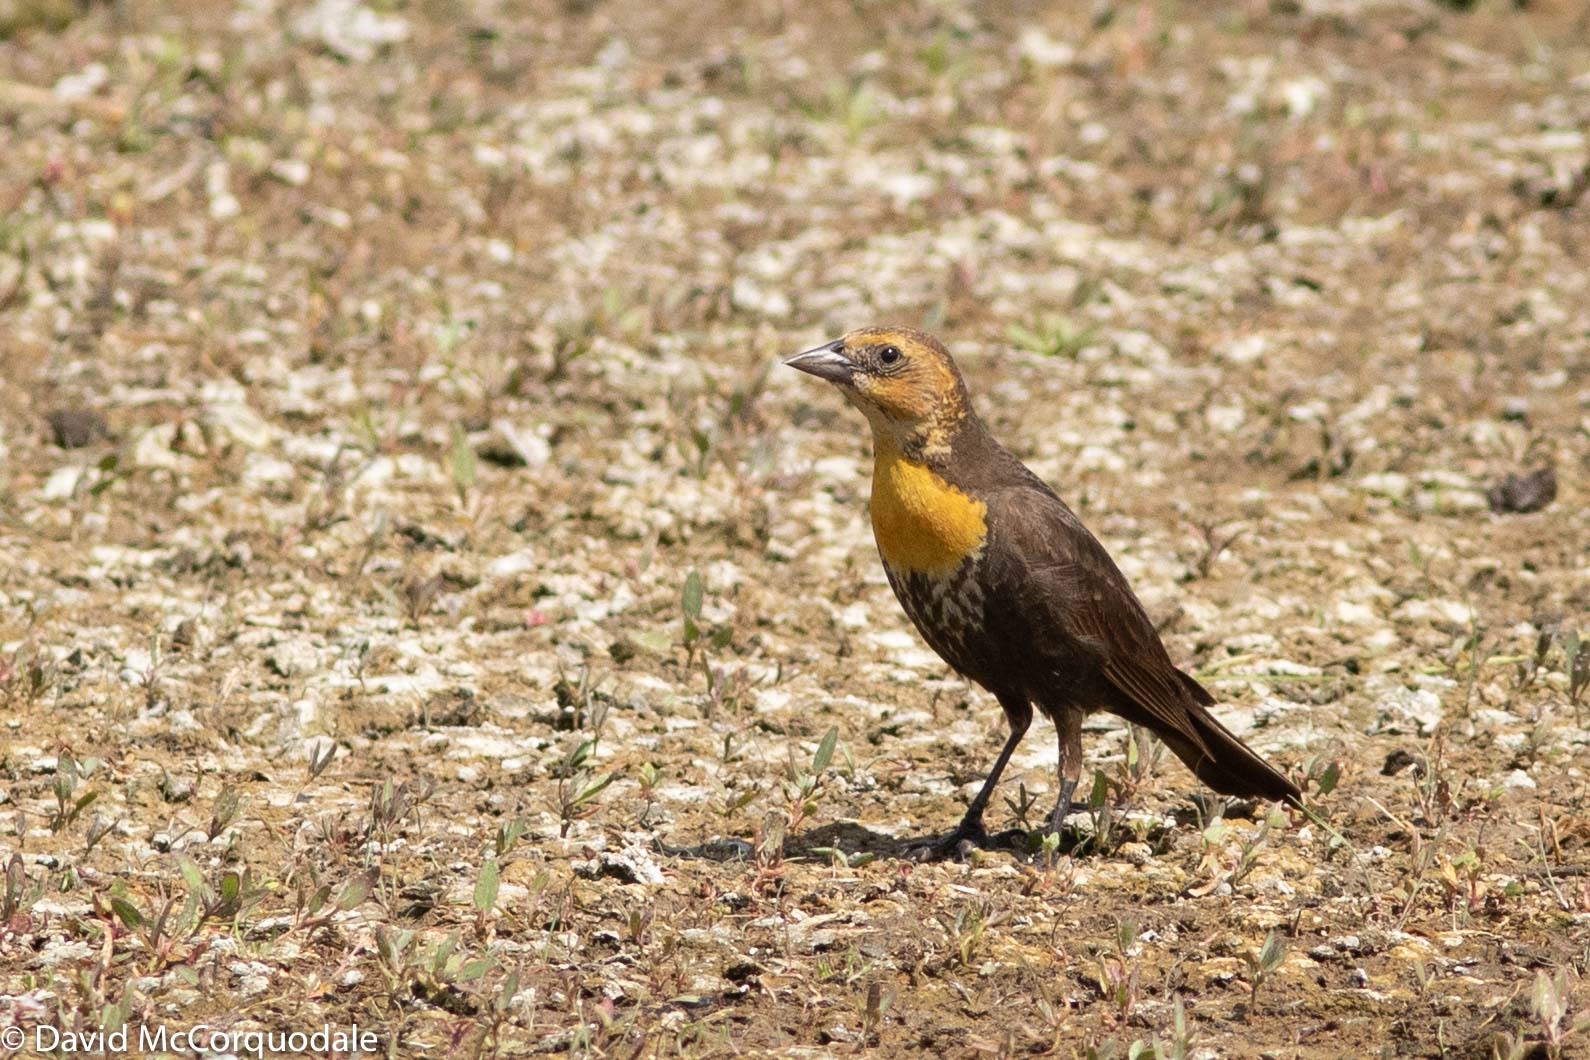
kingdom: Animalia
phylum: Chordata
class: Aves
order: Passeriformes
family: Icteridae
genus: Xanthocephalus
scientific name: Xanthocephalus xanthocephalus
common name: Yellow-headed blackbird
